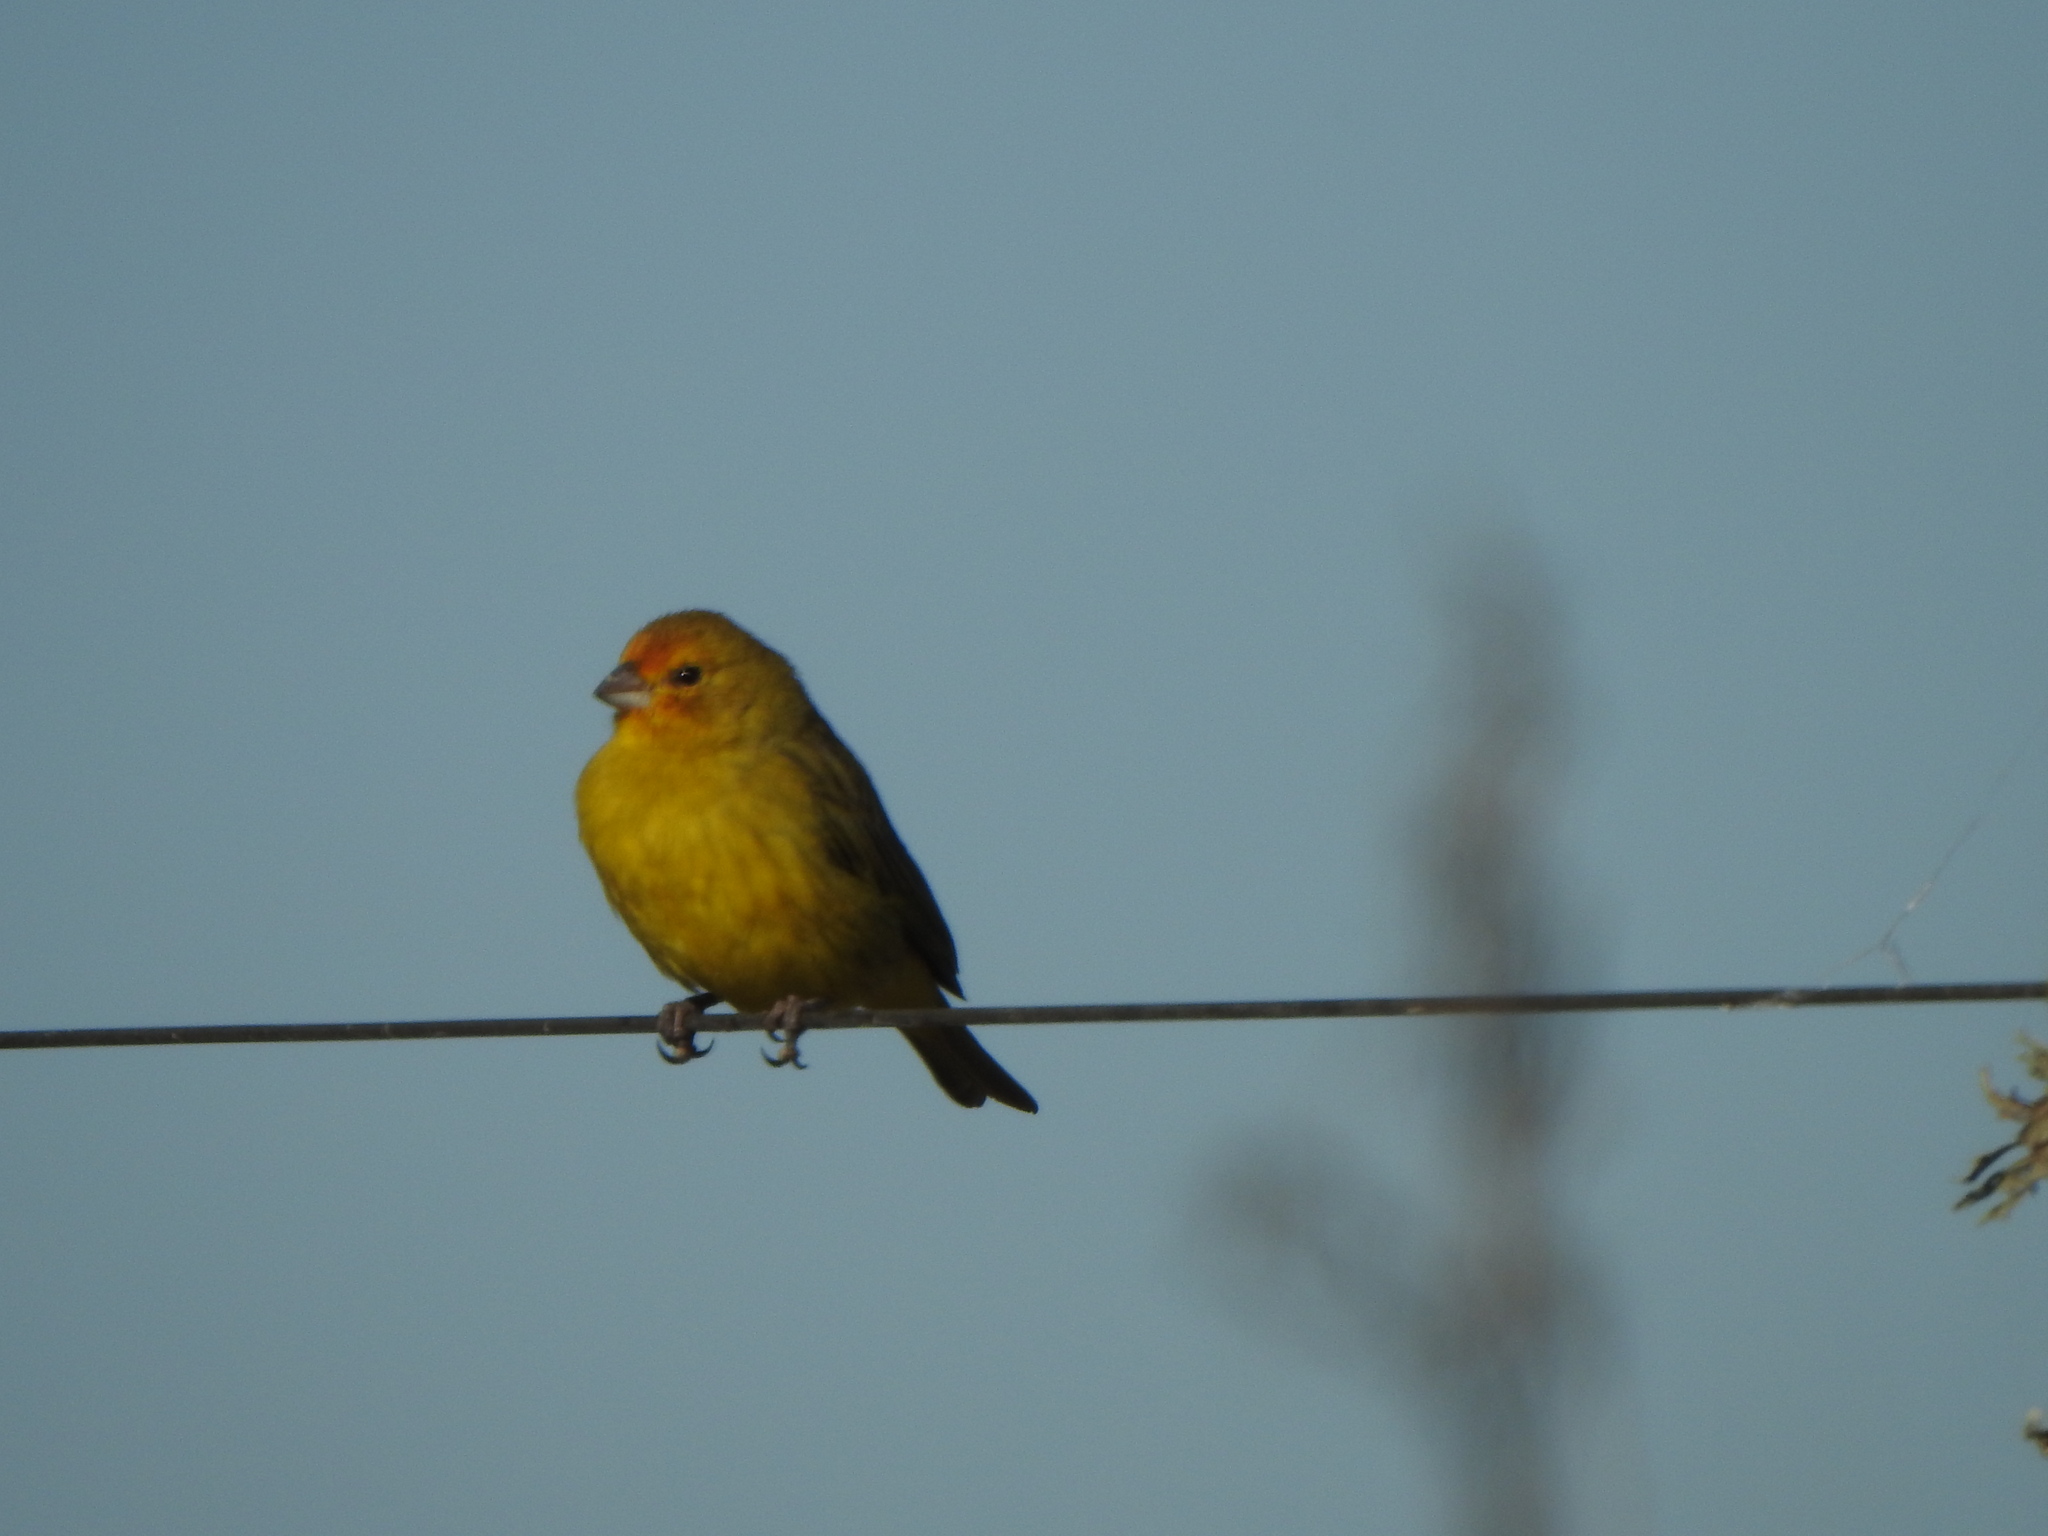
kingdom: Animalia
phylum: Chordata
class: Aves
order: Passeriformes
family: Thraupidae
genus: Sicalis
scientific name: Sicalis flaveola
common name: Saffron finch
